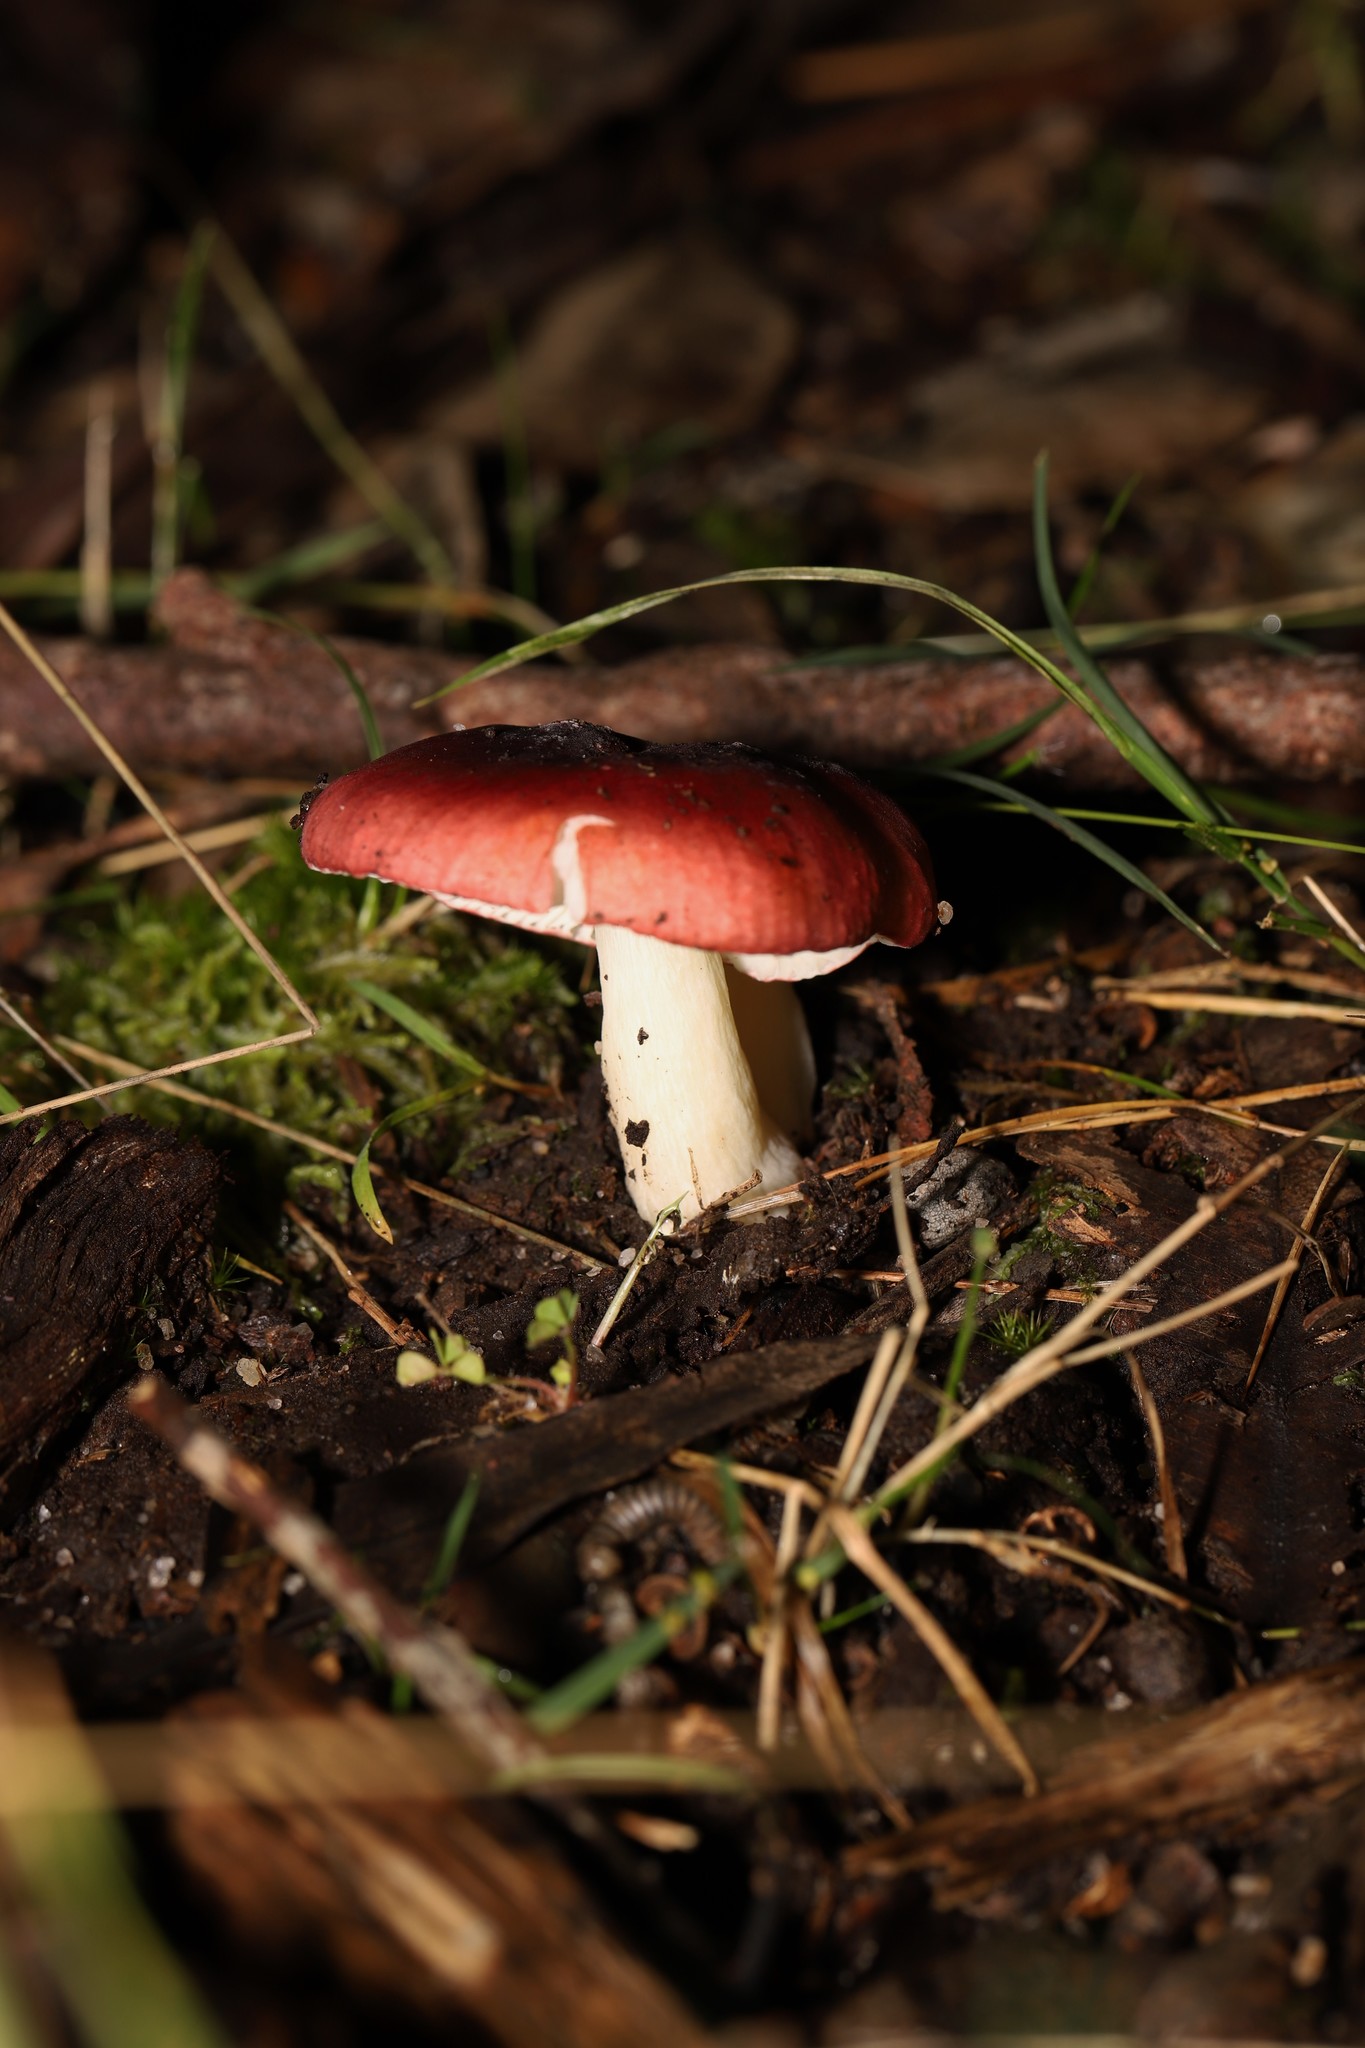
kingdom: Fungi
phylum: Basidiomycota
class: Agaricomycetes
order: Russulales
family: Russulaceae
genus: Russula
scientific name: Russula persanguinea
